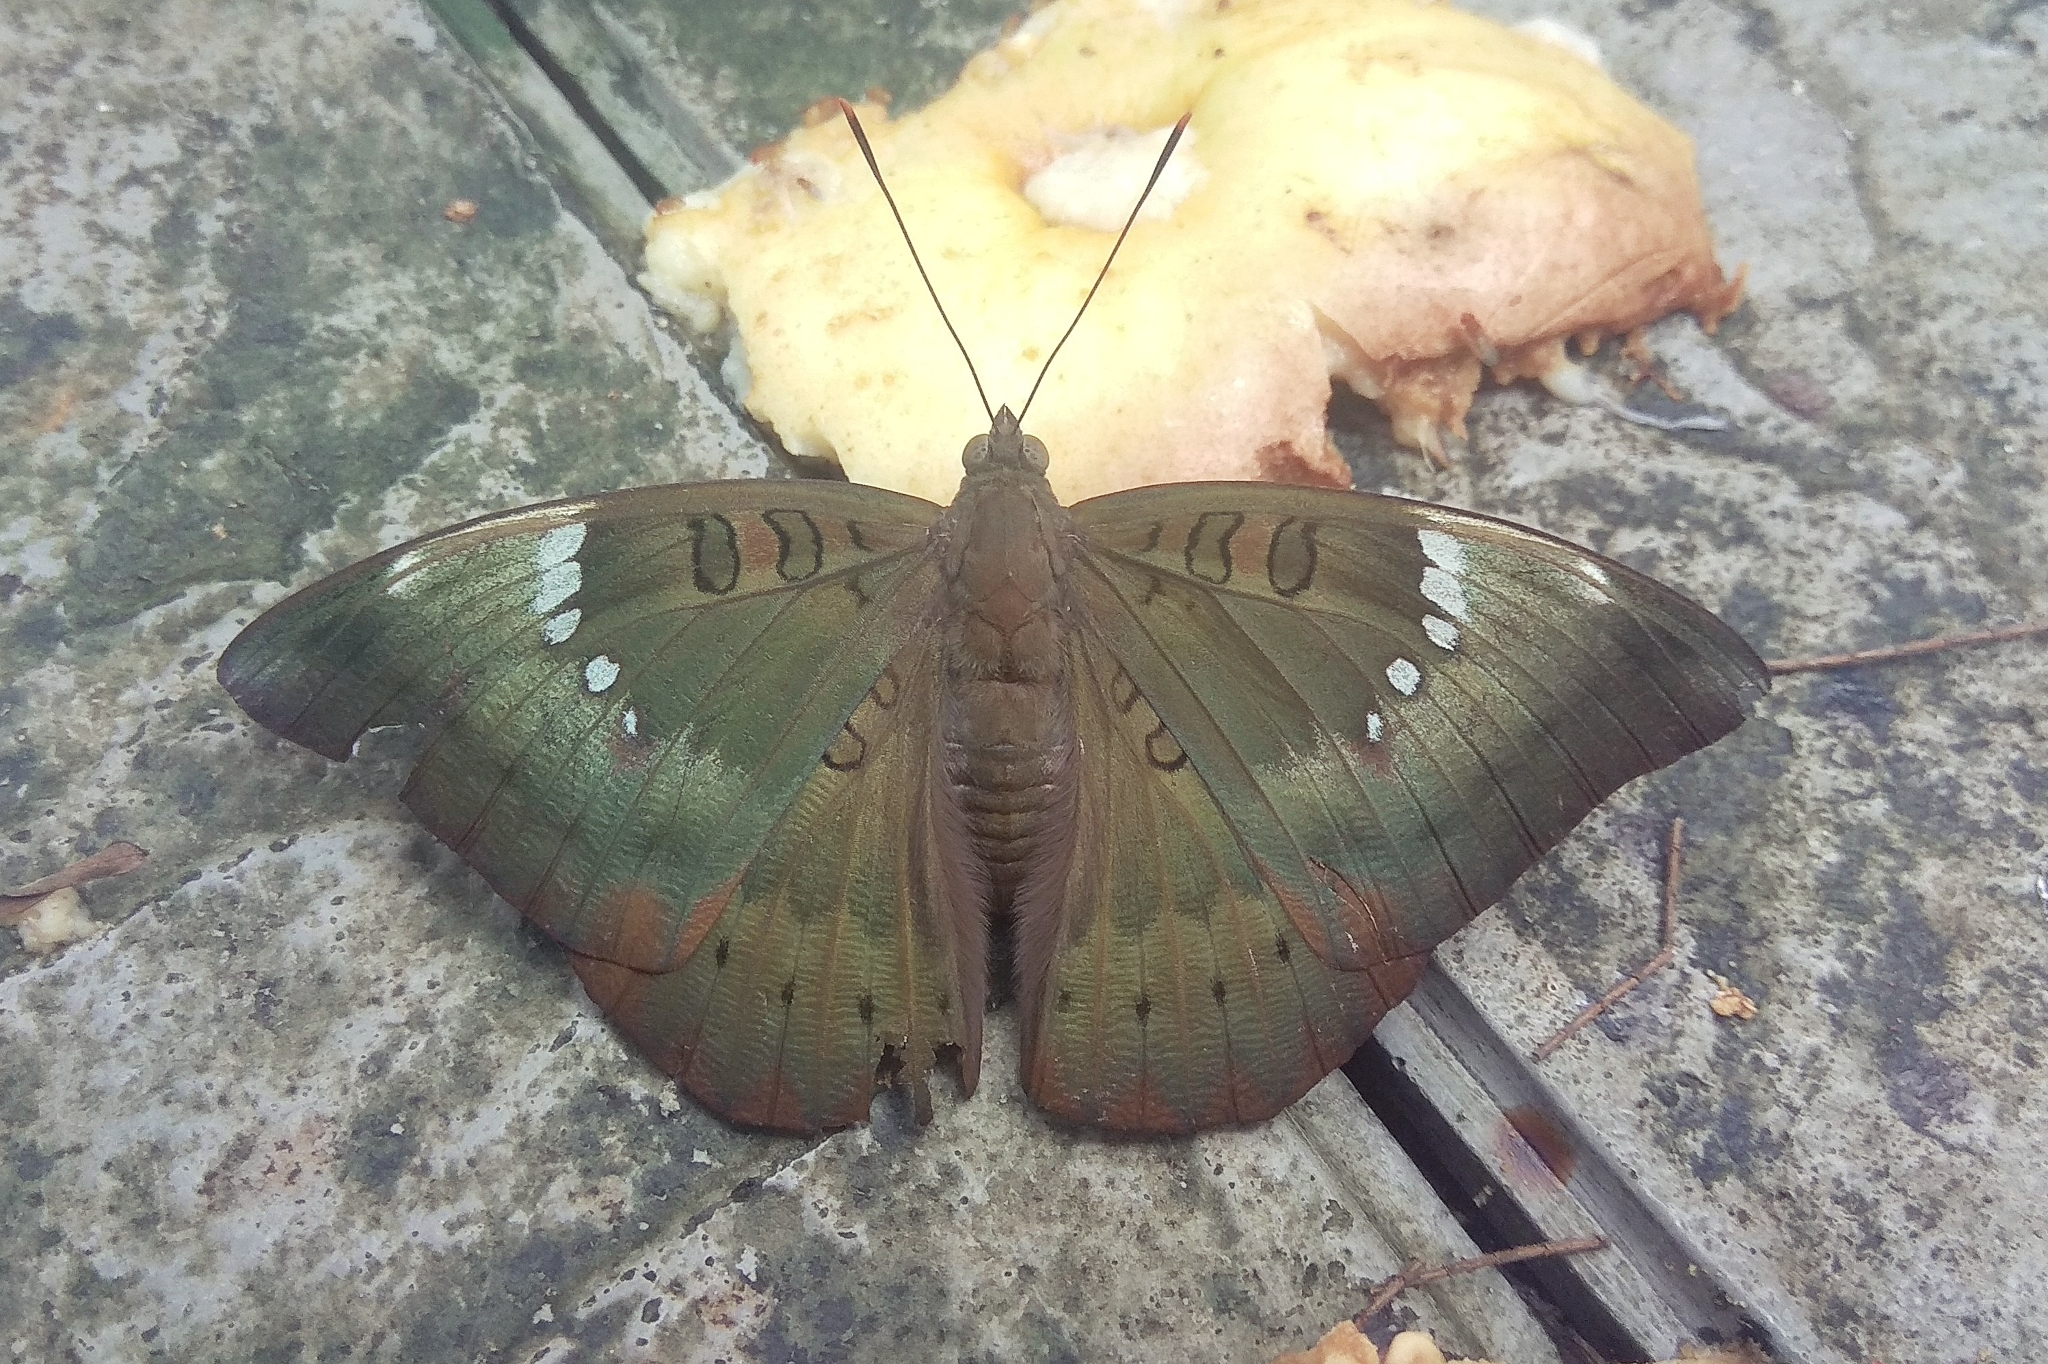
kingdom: Animalia
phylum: Arthropoda
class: Insecta
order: Lepidoptera
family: Nymphalidae
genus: Euthalia
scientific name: Euthalia aconthea
